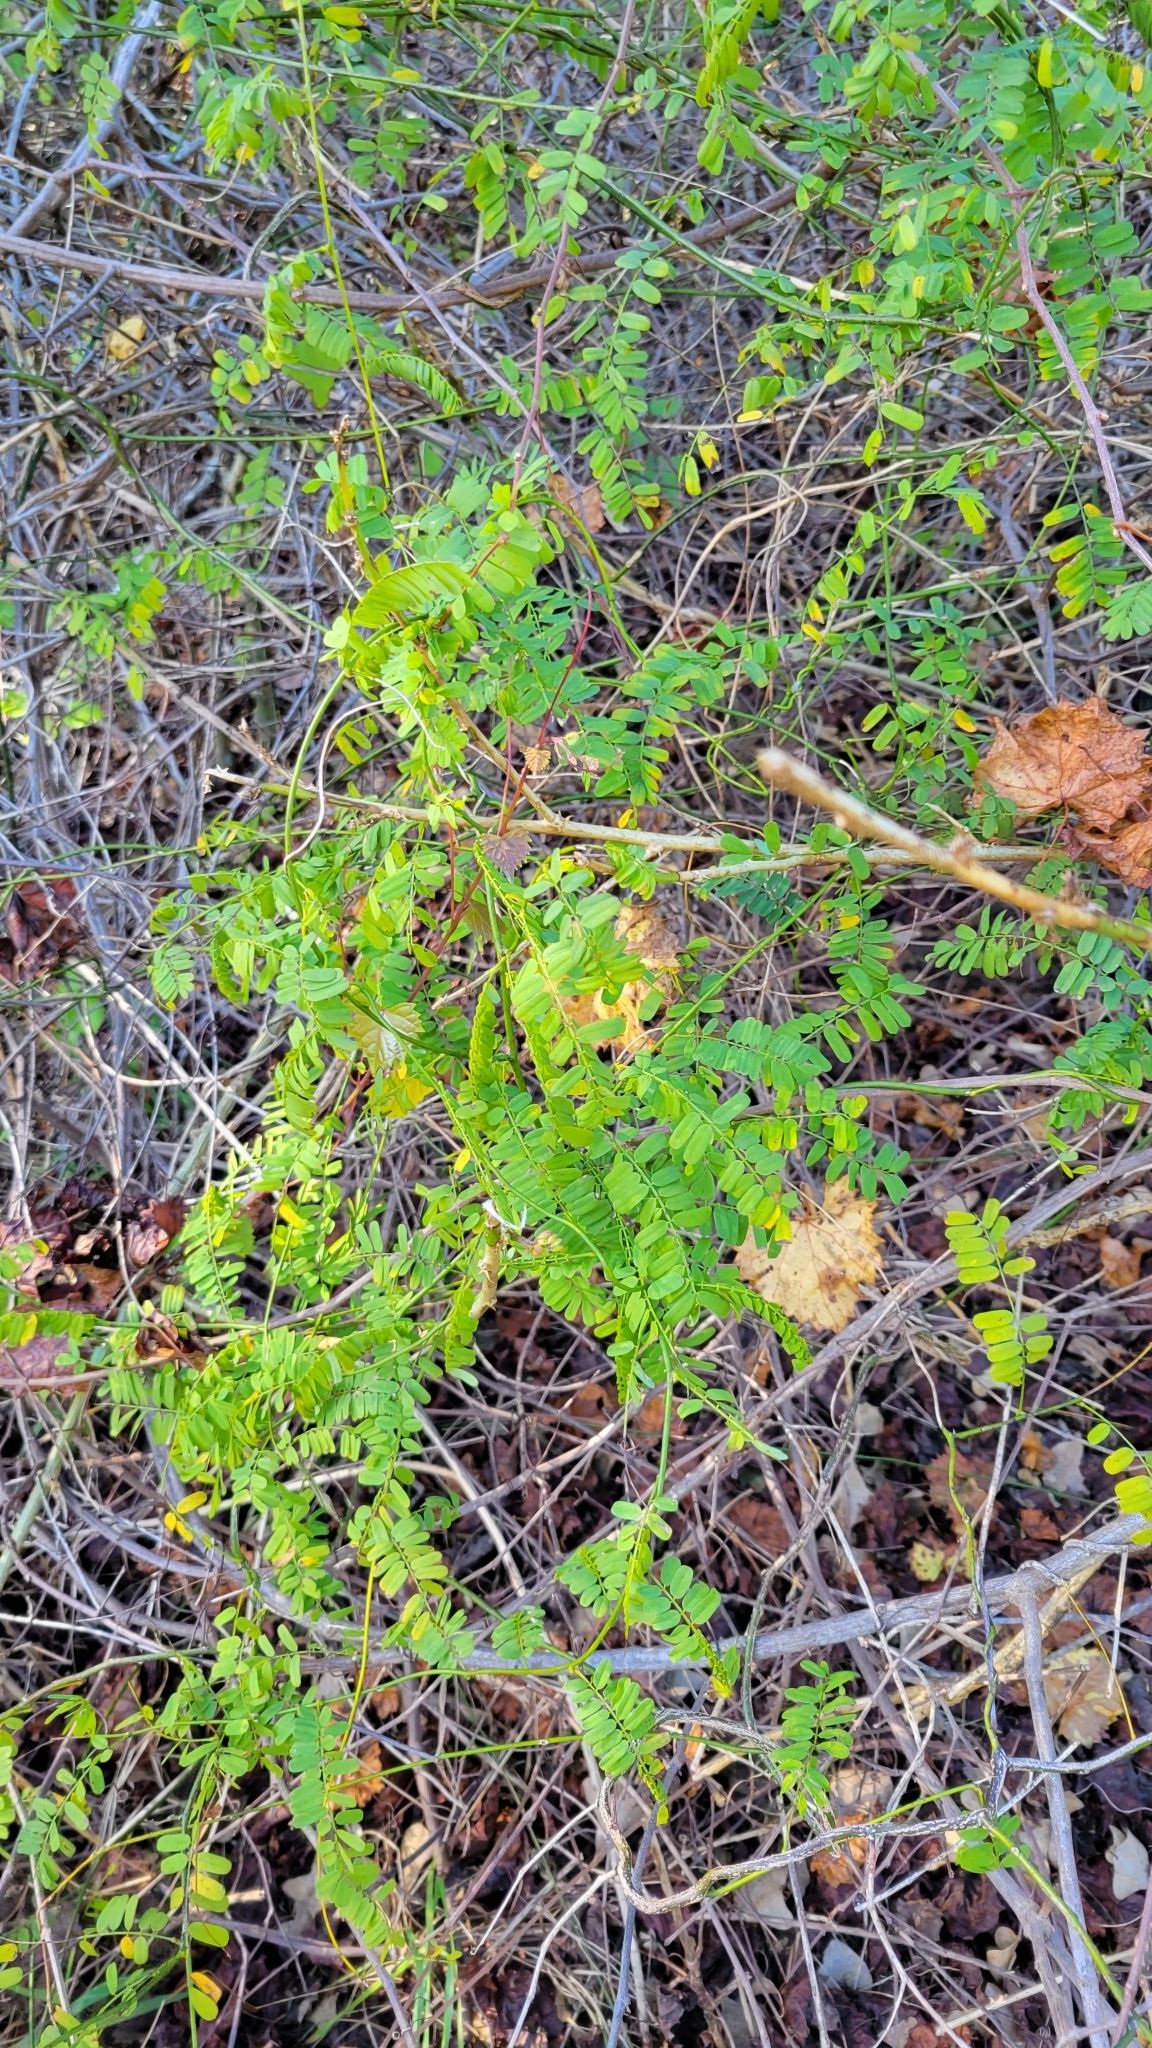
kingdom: Plantae
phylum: Tracheophyta
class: Magnoliopsida
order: Fabales
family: Fabaceae
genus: Abrus
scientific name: Abrus precatorius
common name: Rosarypea
